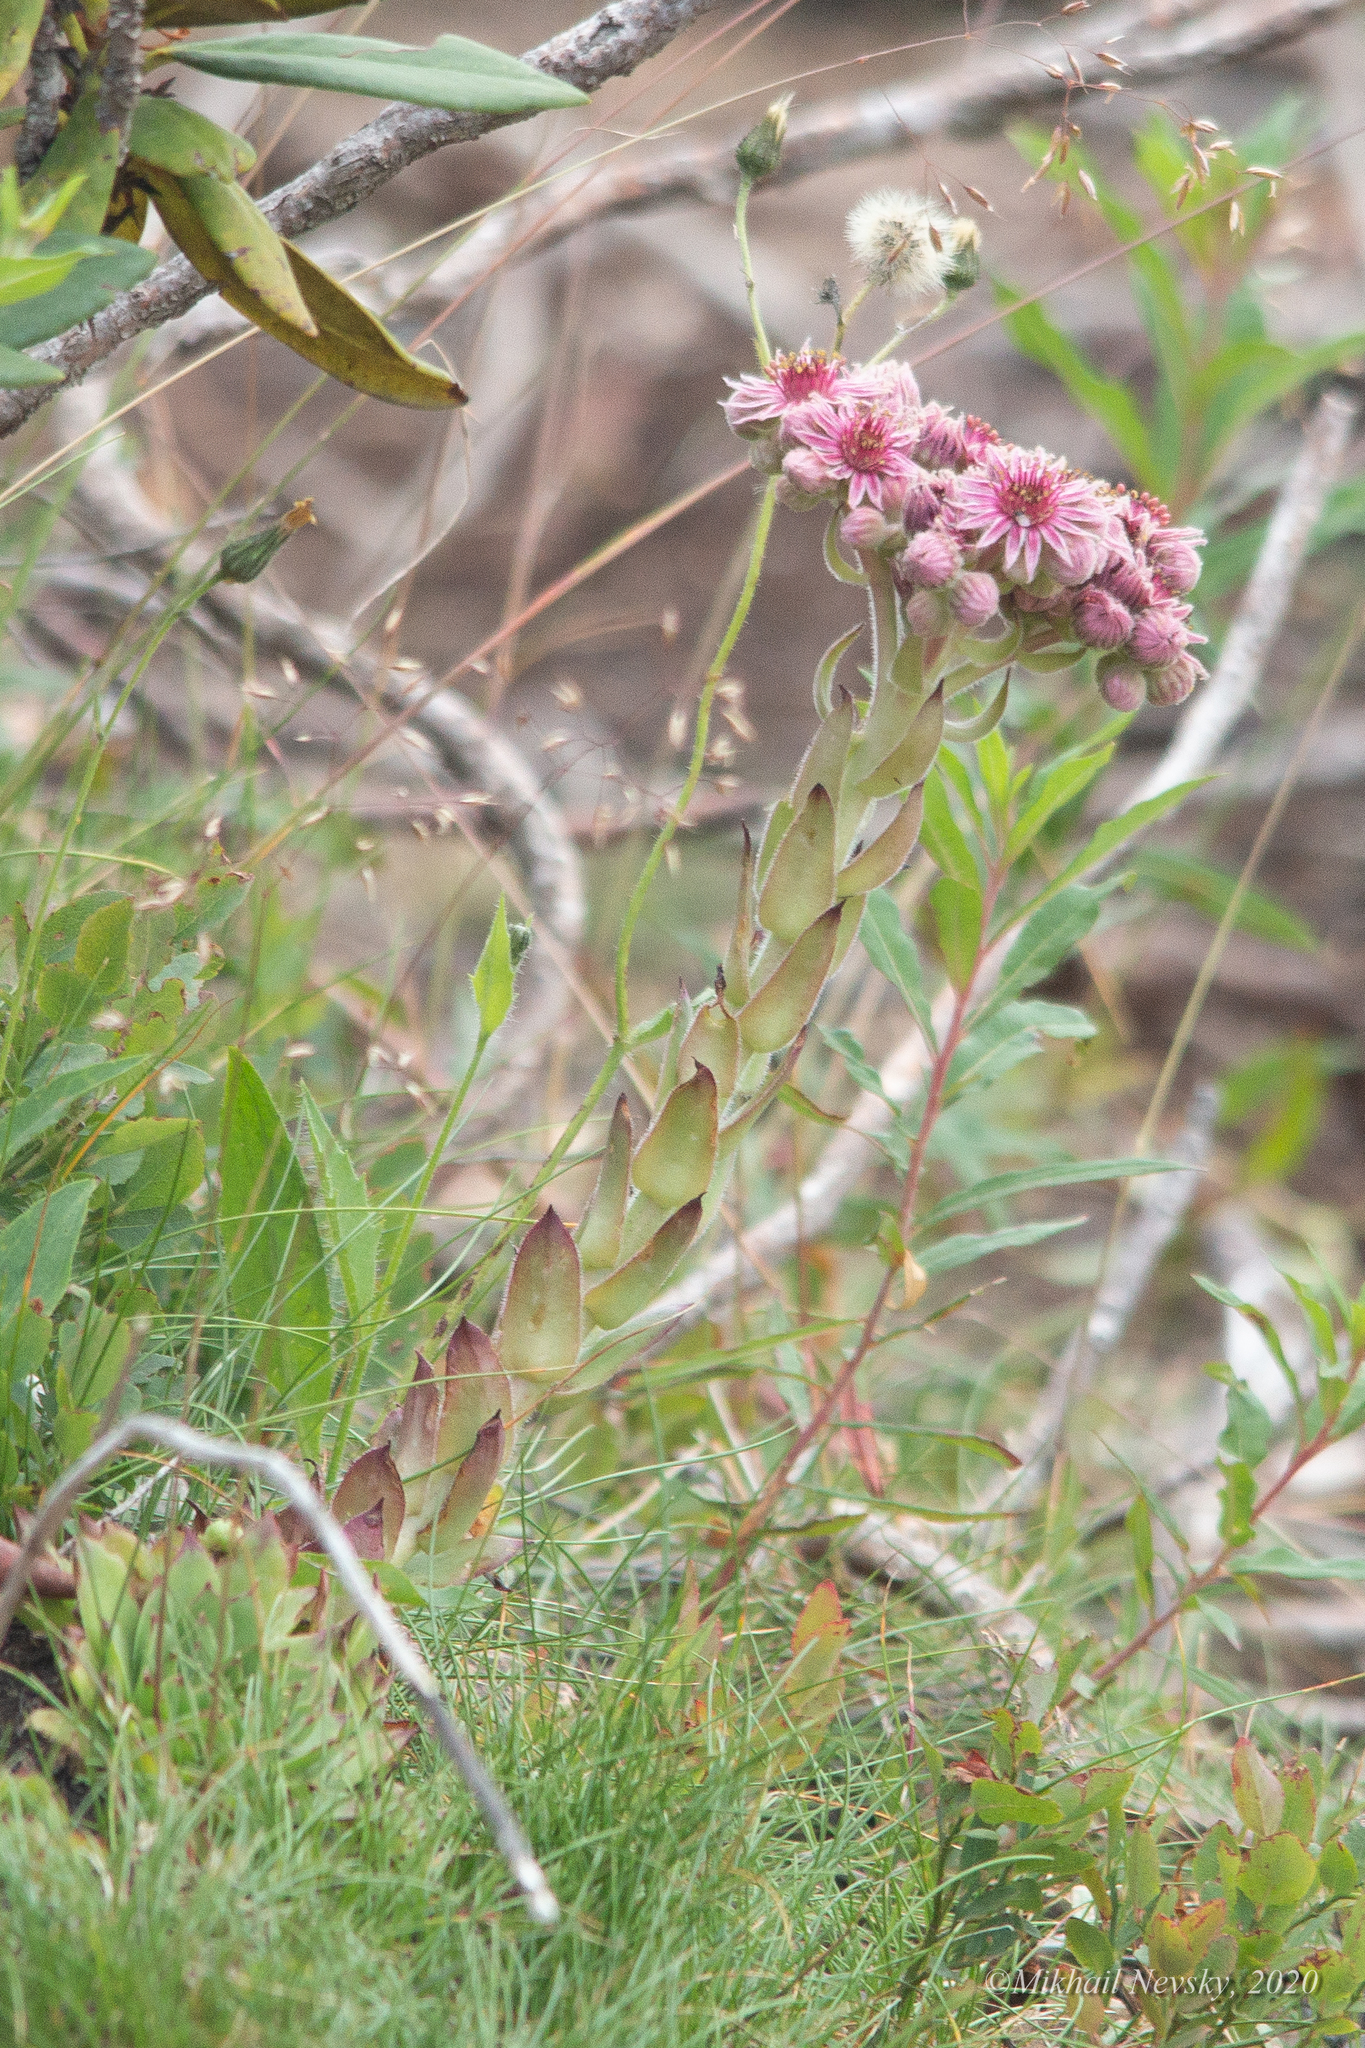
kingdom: Plantae
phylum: Tracheophyta
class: Magnoliopsida
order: Saxifragales
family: Crassulaceae
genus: Sempervivum
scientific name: Sempervivum caucasicum
